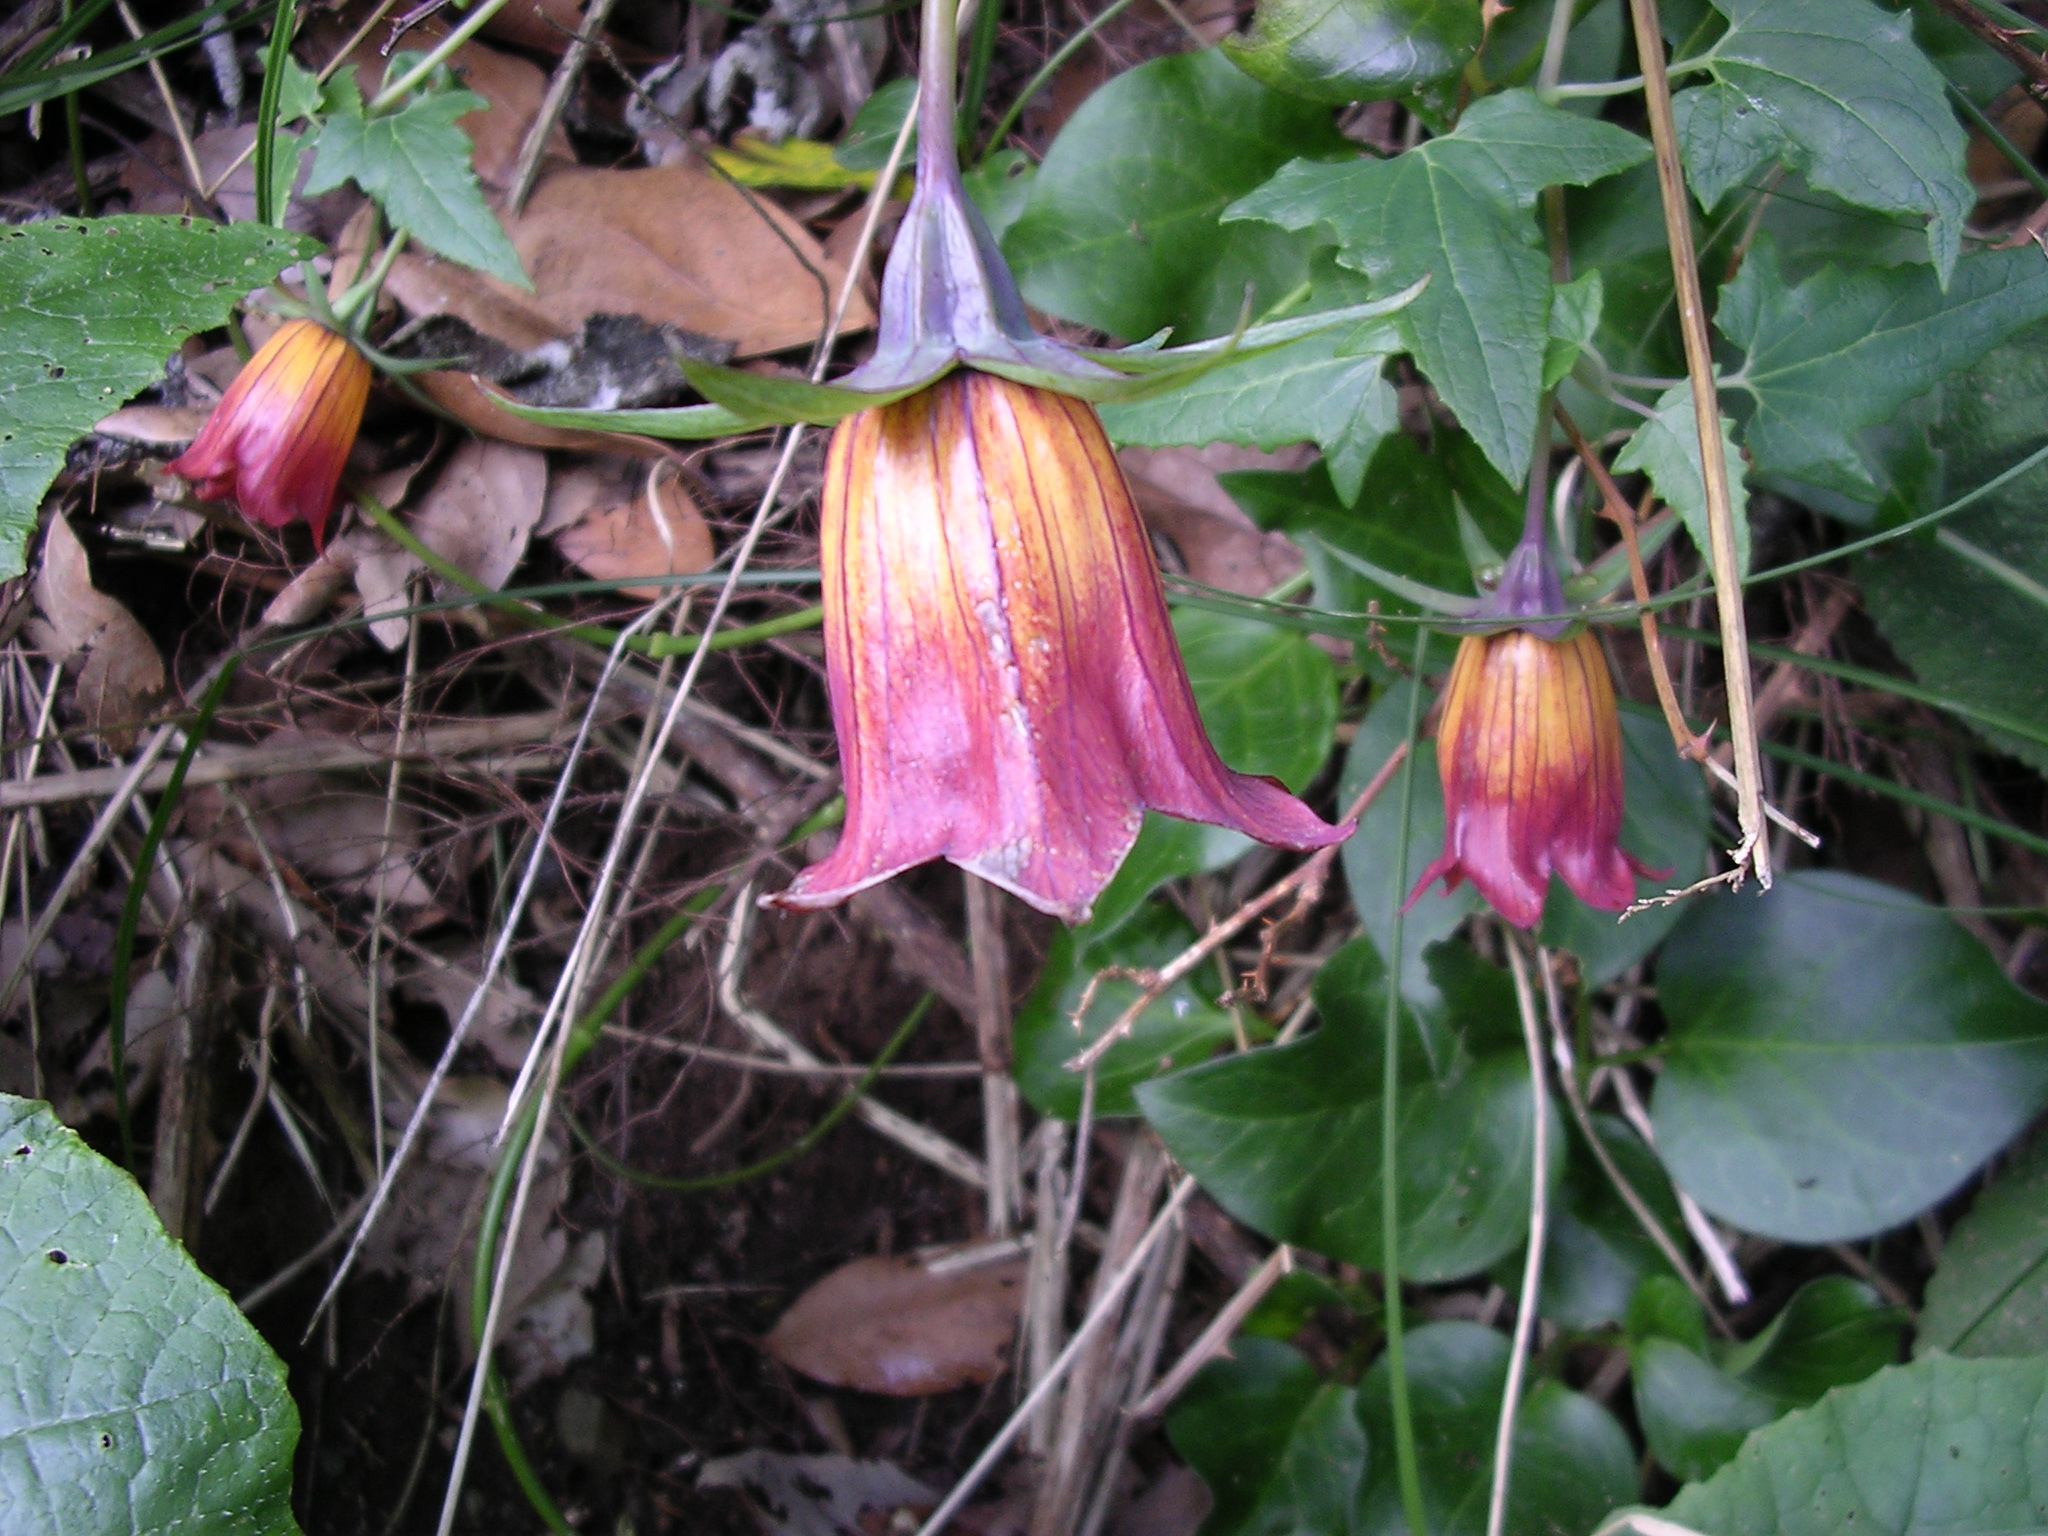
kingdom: Plantae
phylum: Tracheophyta
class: Magnoliopsida
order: Asterales
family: Campanulaceae
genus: Canarina
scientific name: Canarina canariensis
